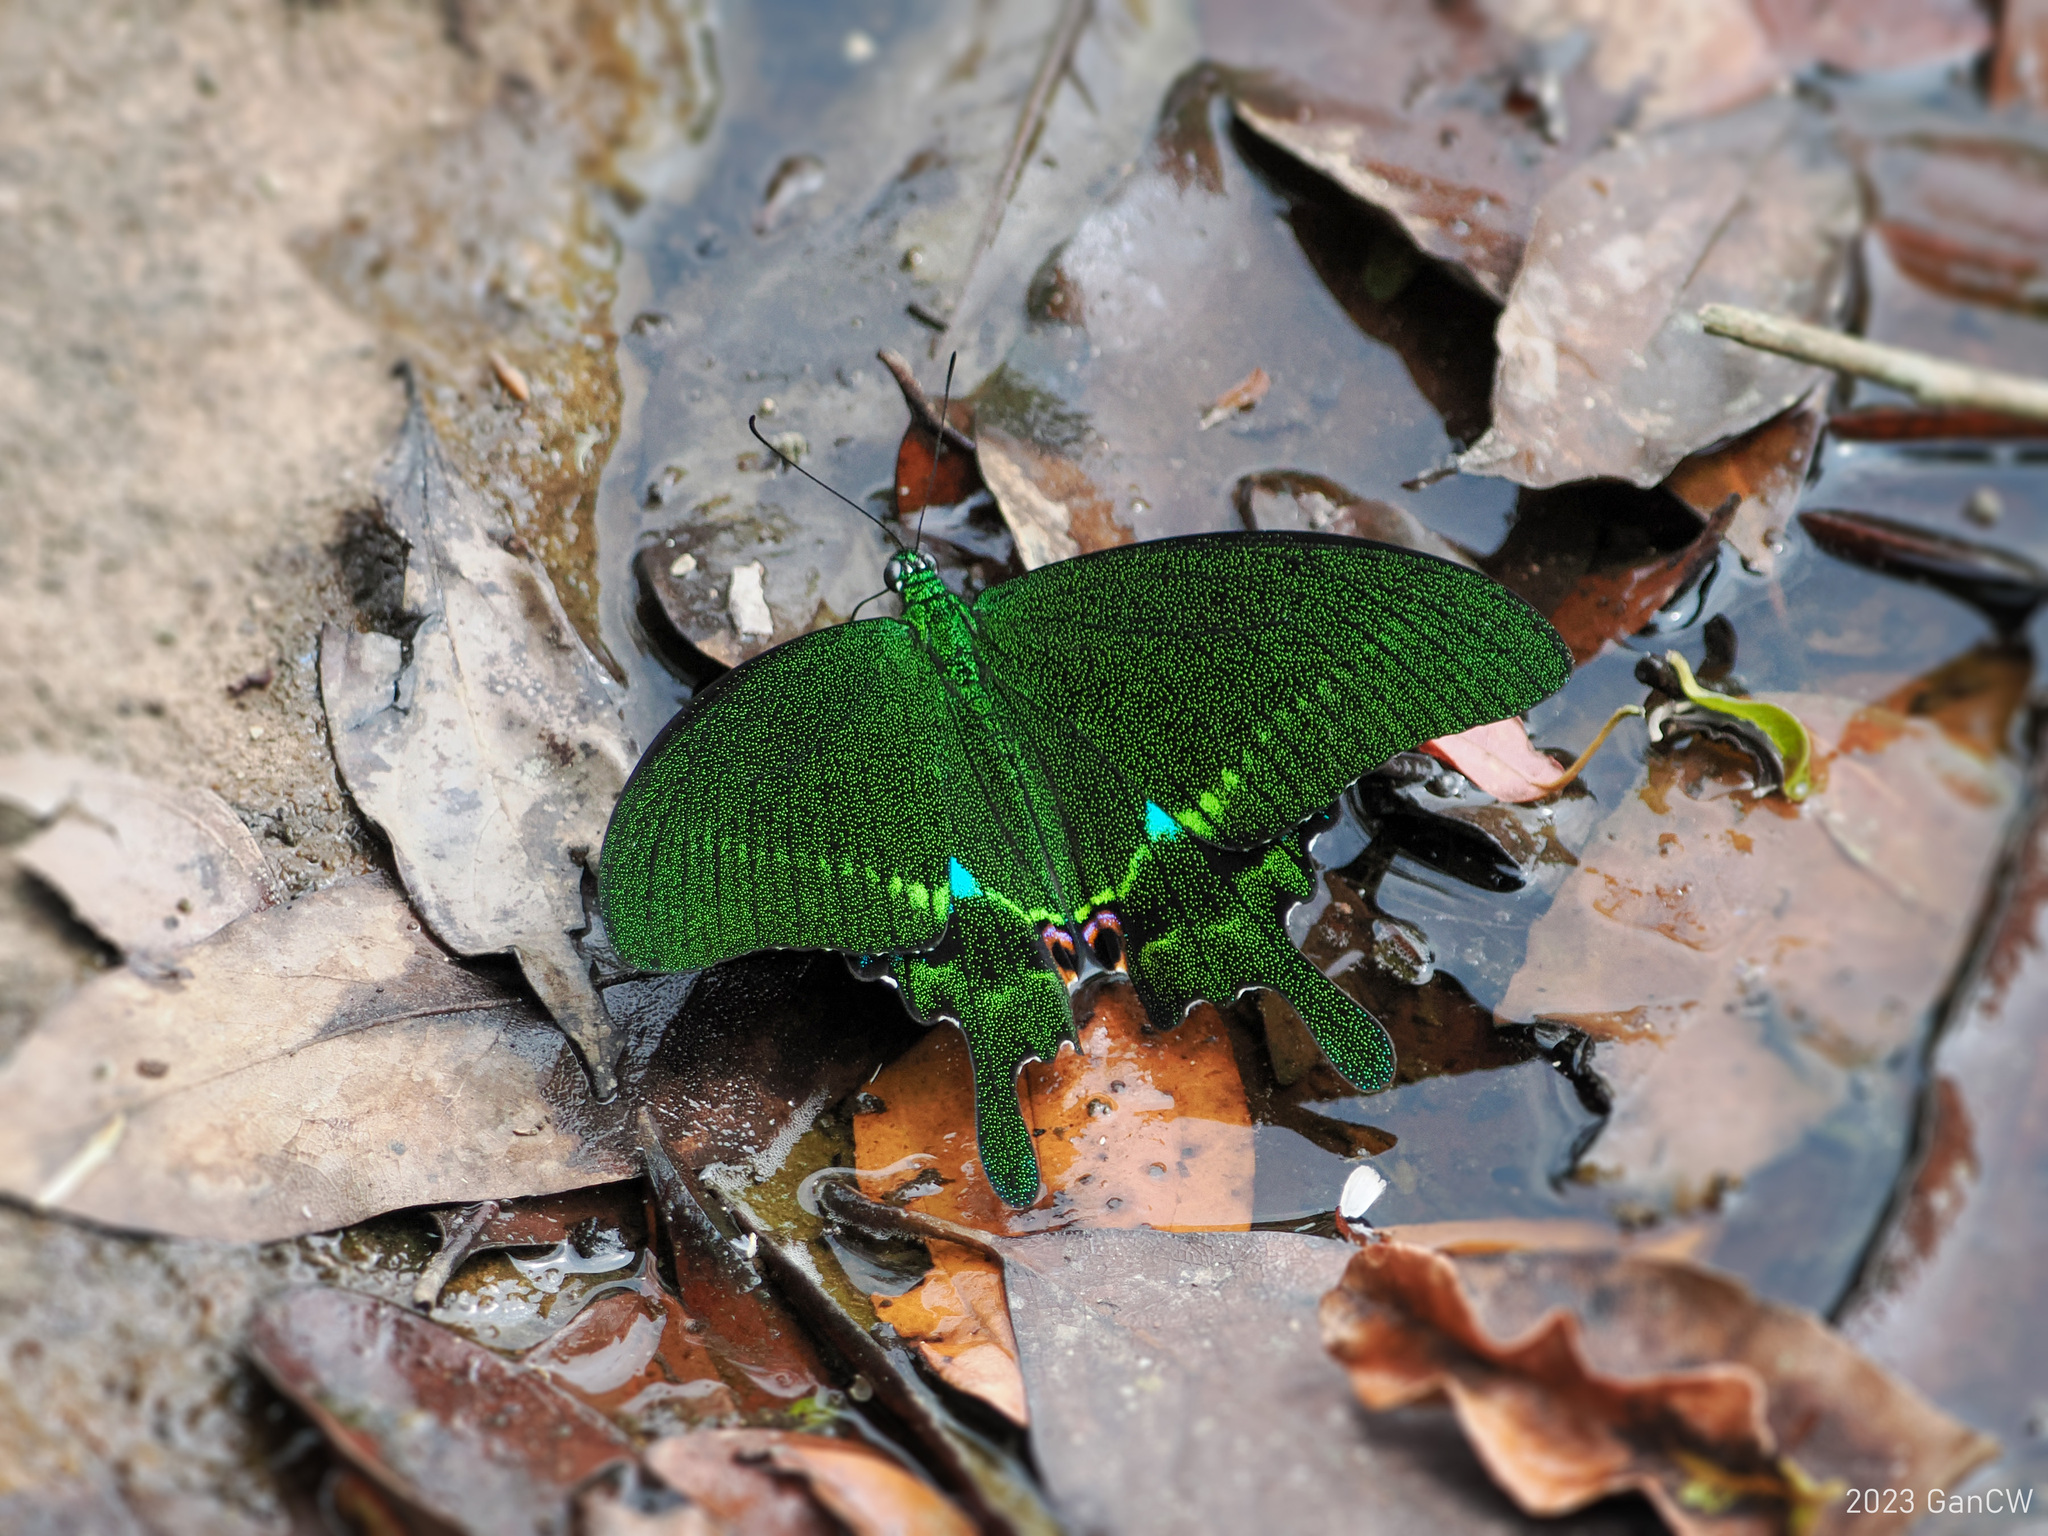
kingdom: Animalia
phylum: Arthropoda
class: Insecta
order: Lepidoptera
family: Papilionidae
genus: Papilio
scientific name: Papilio paris
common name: Paris peacock
